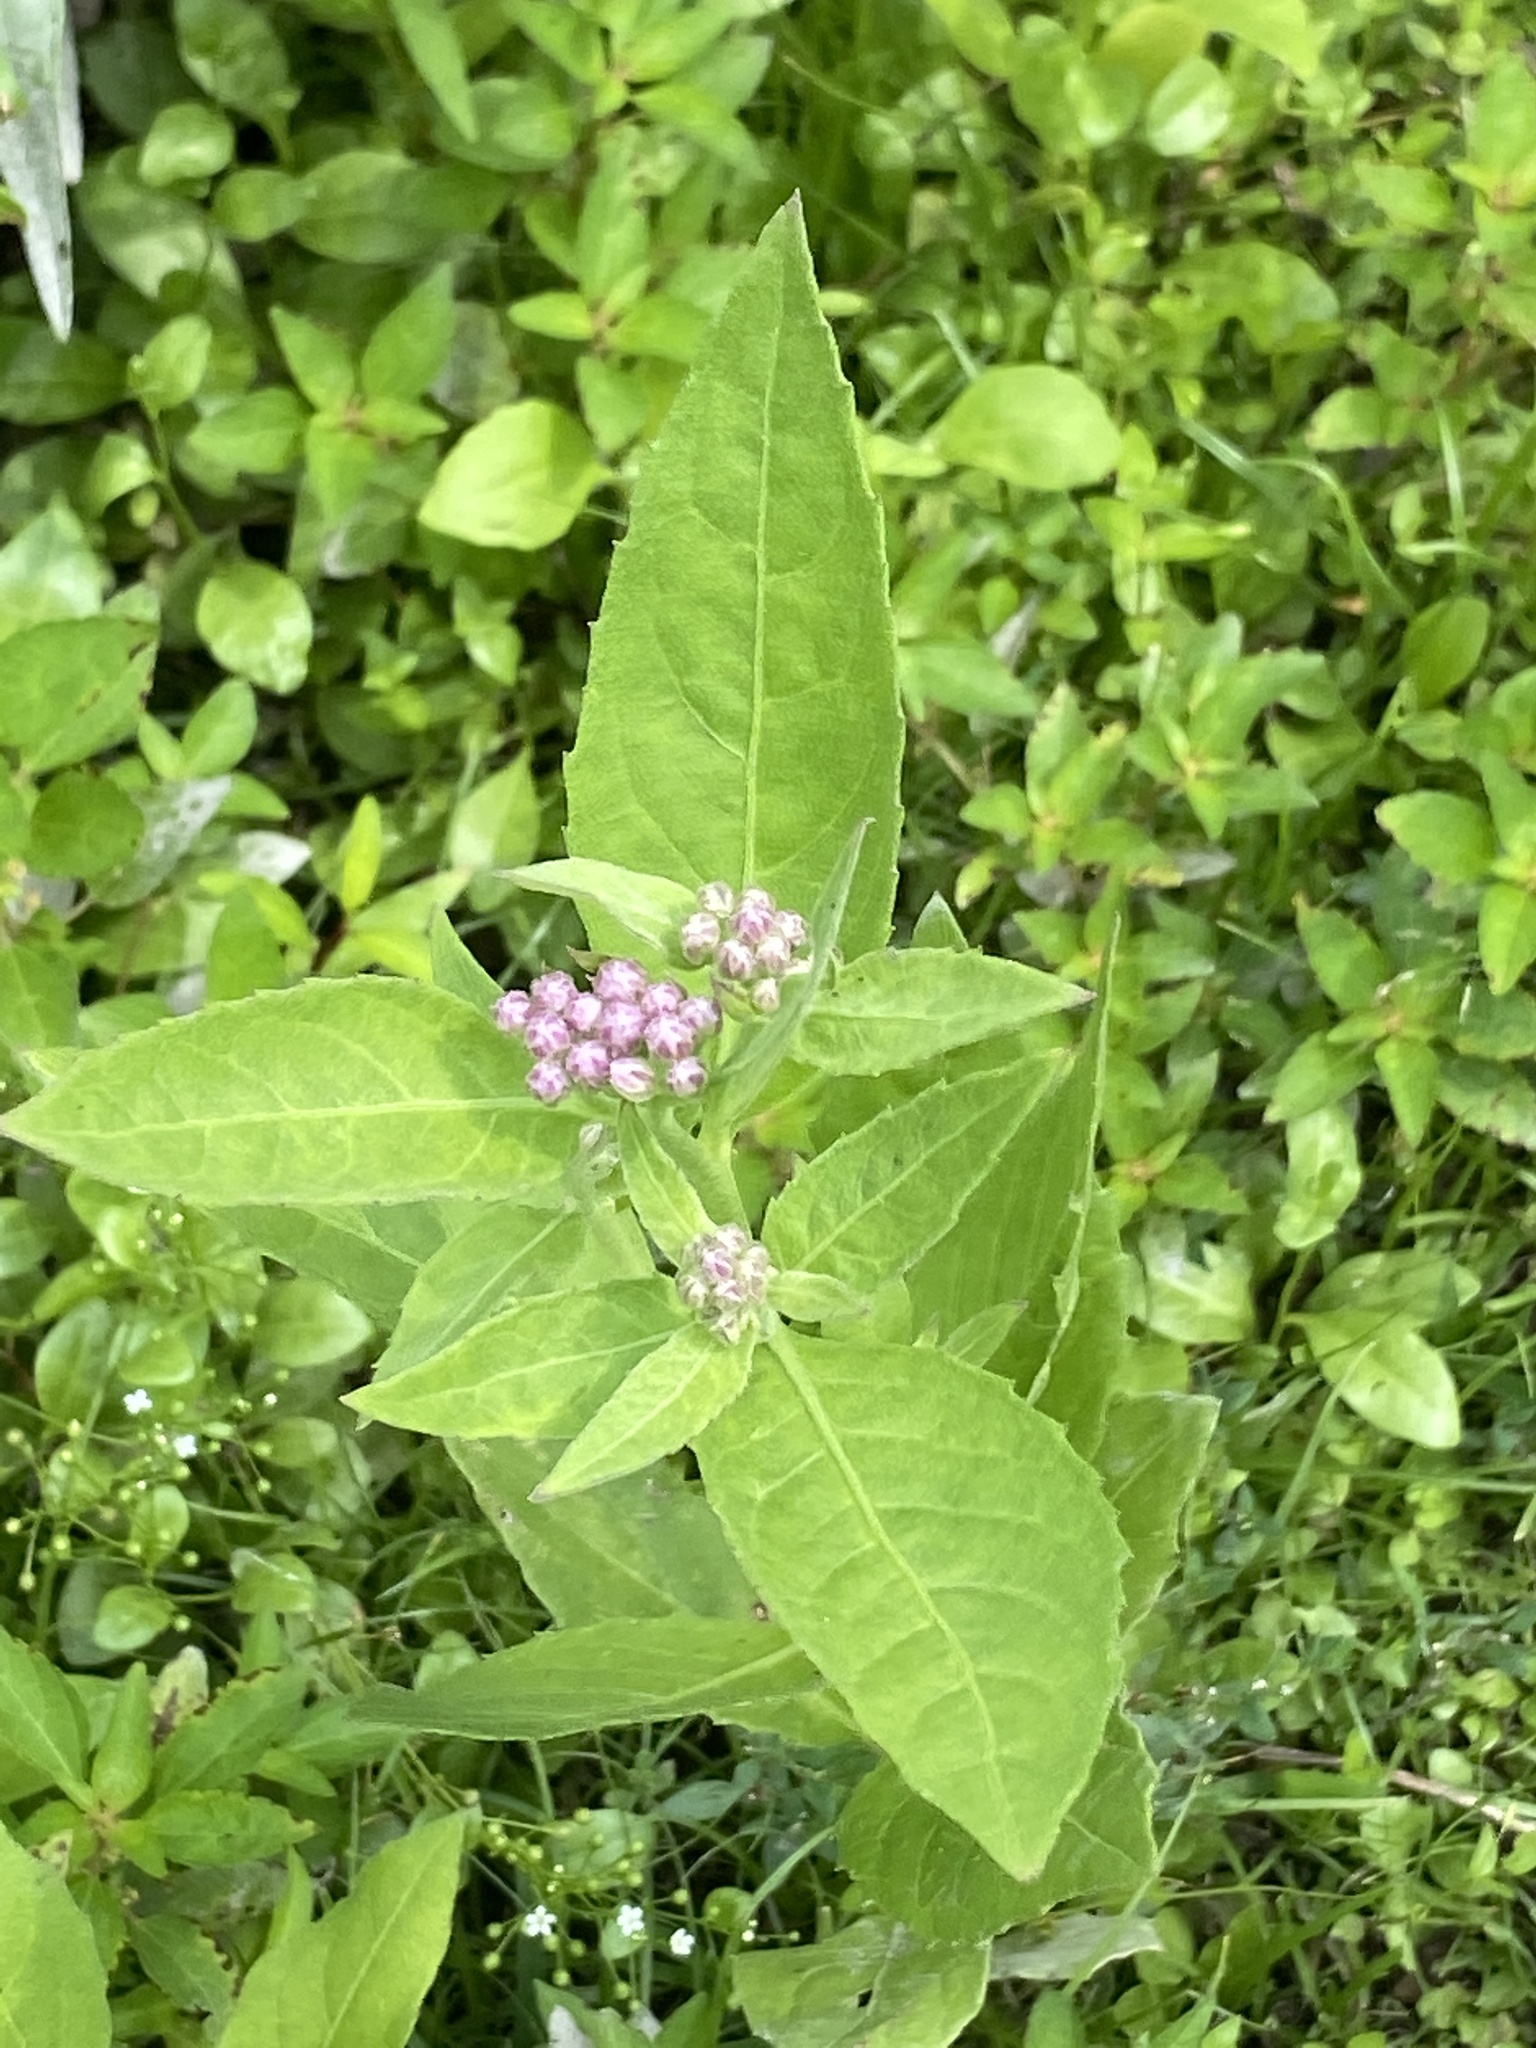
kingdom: Plantae
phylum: Tracheophyta
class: Magnoliopsida
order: Asterales
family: Asteraceae
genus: Pluchea
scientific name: Pluchea odorata
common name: Saltmarsh fleabane
